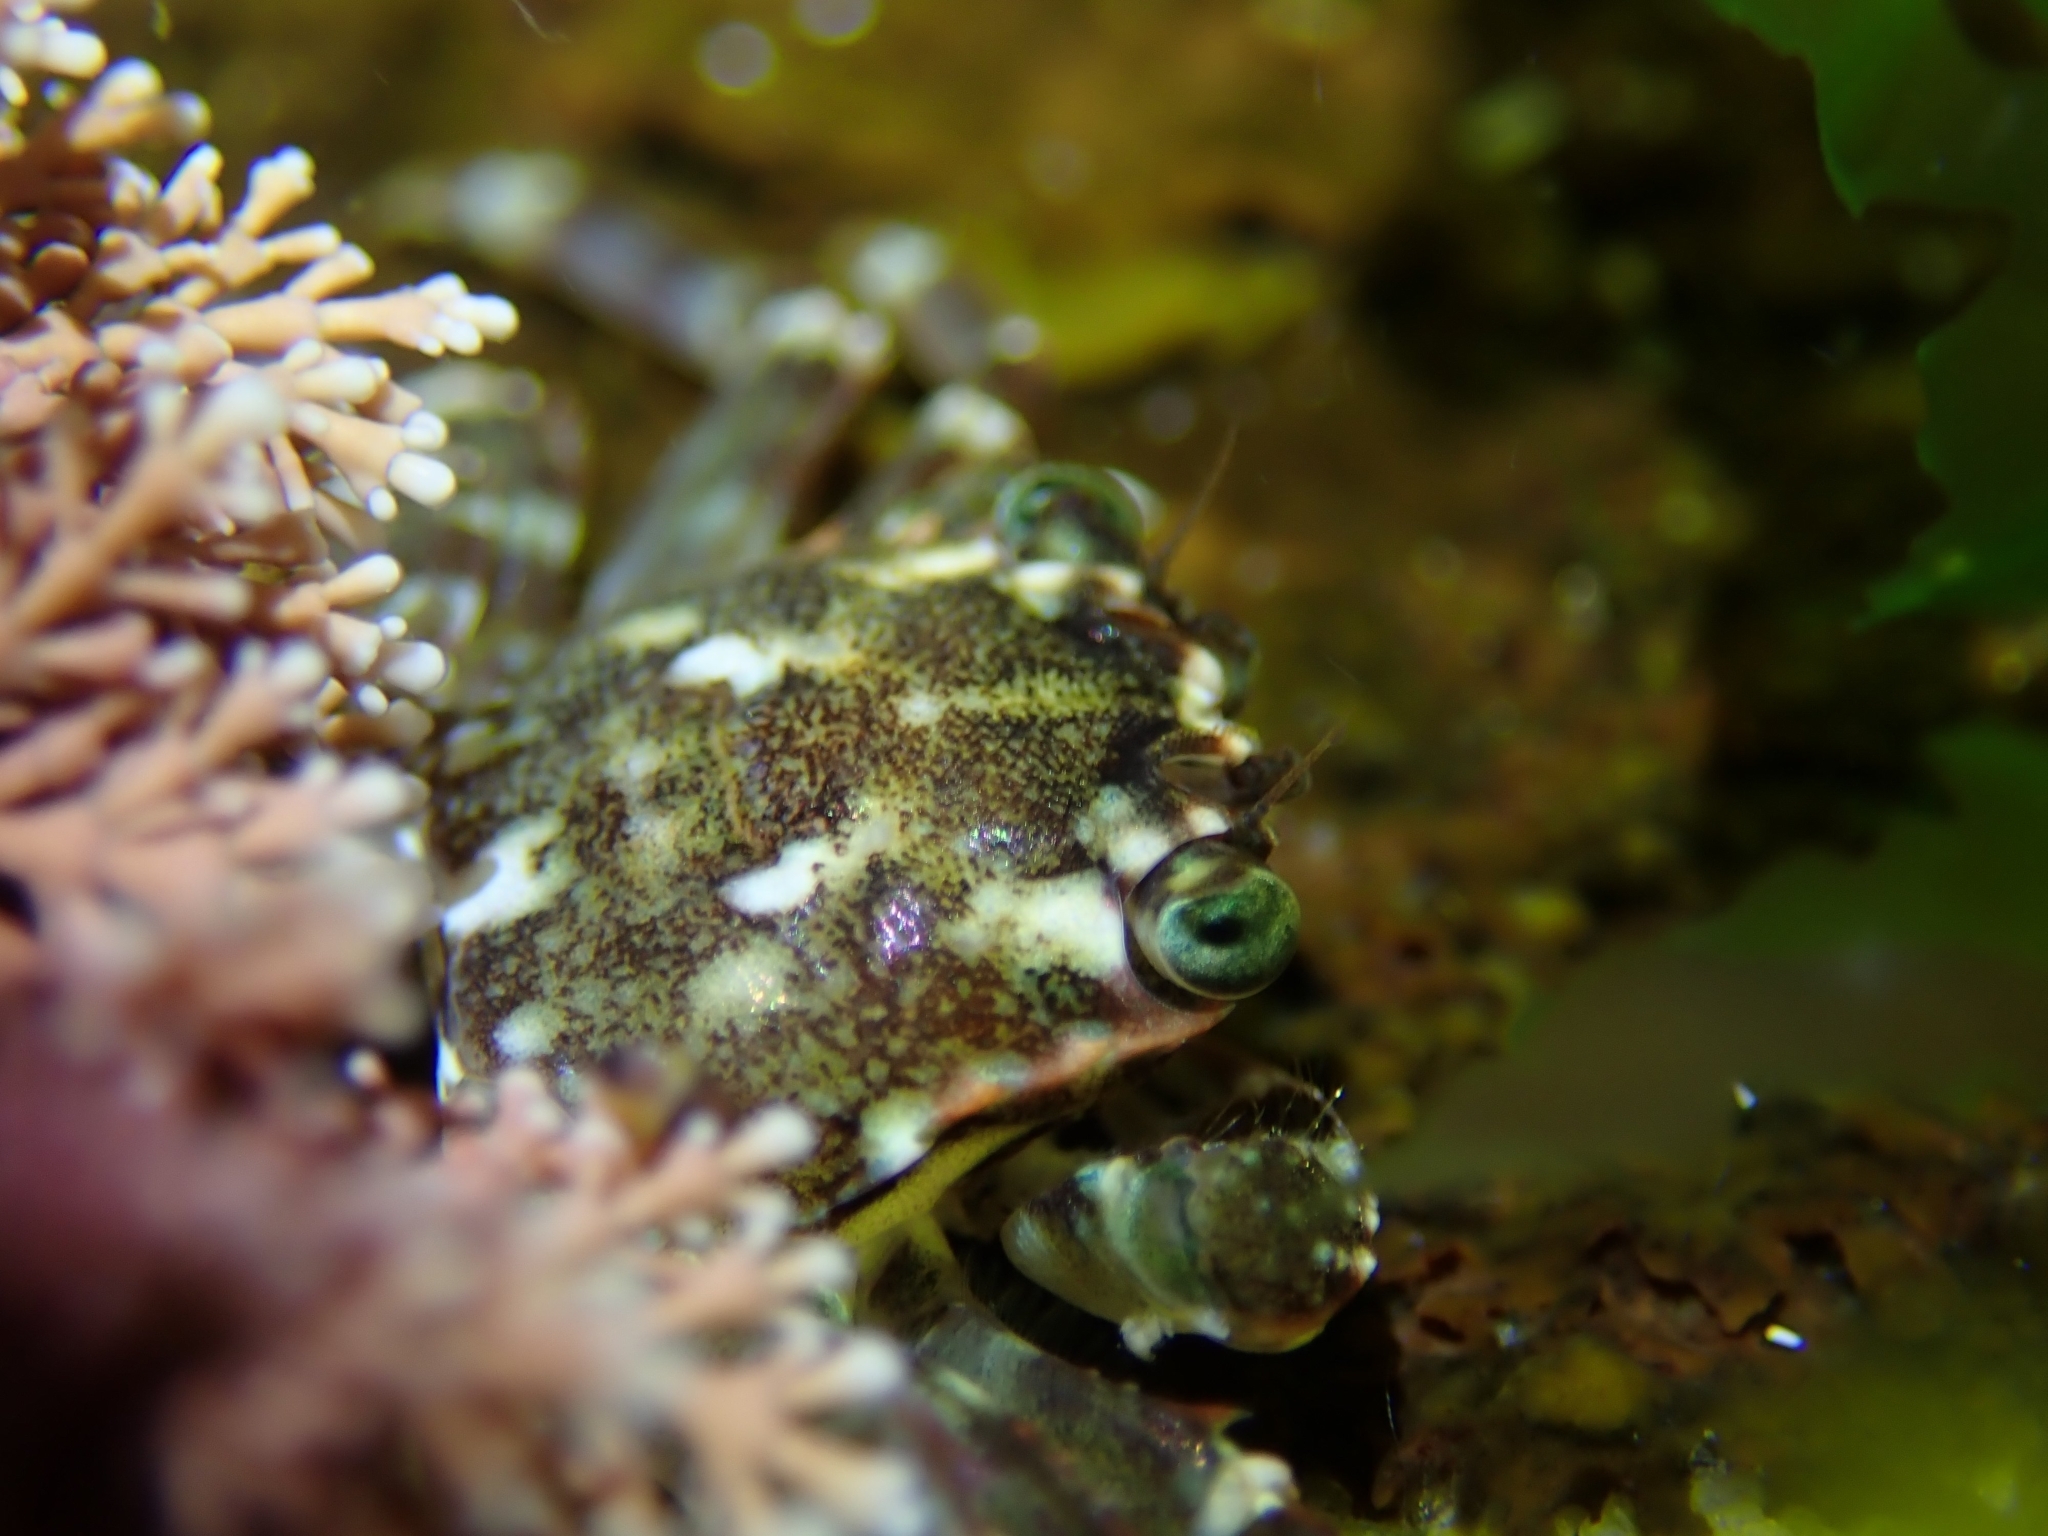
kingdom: Animalia
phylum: Arthropoda
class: Malacostraca
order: Decapoda
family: Plagusiidae
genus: Davusia
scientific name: Davusia glabra
